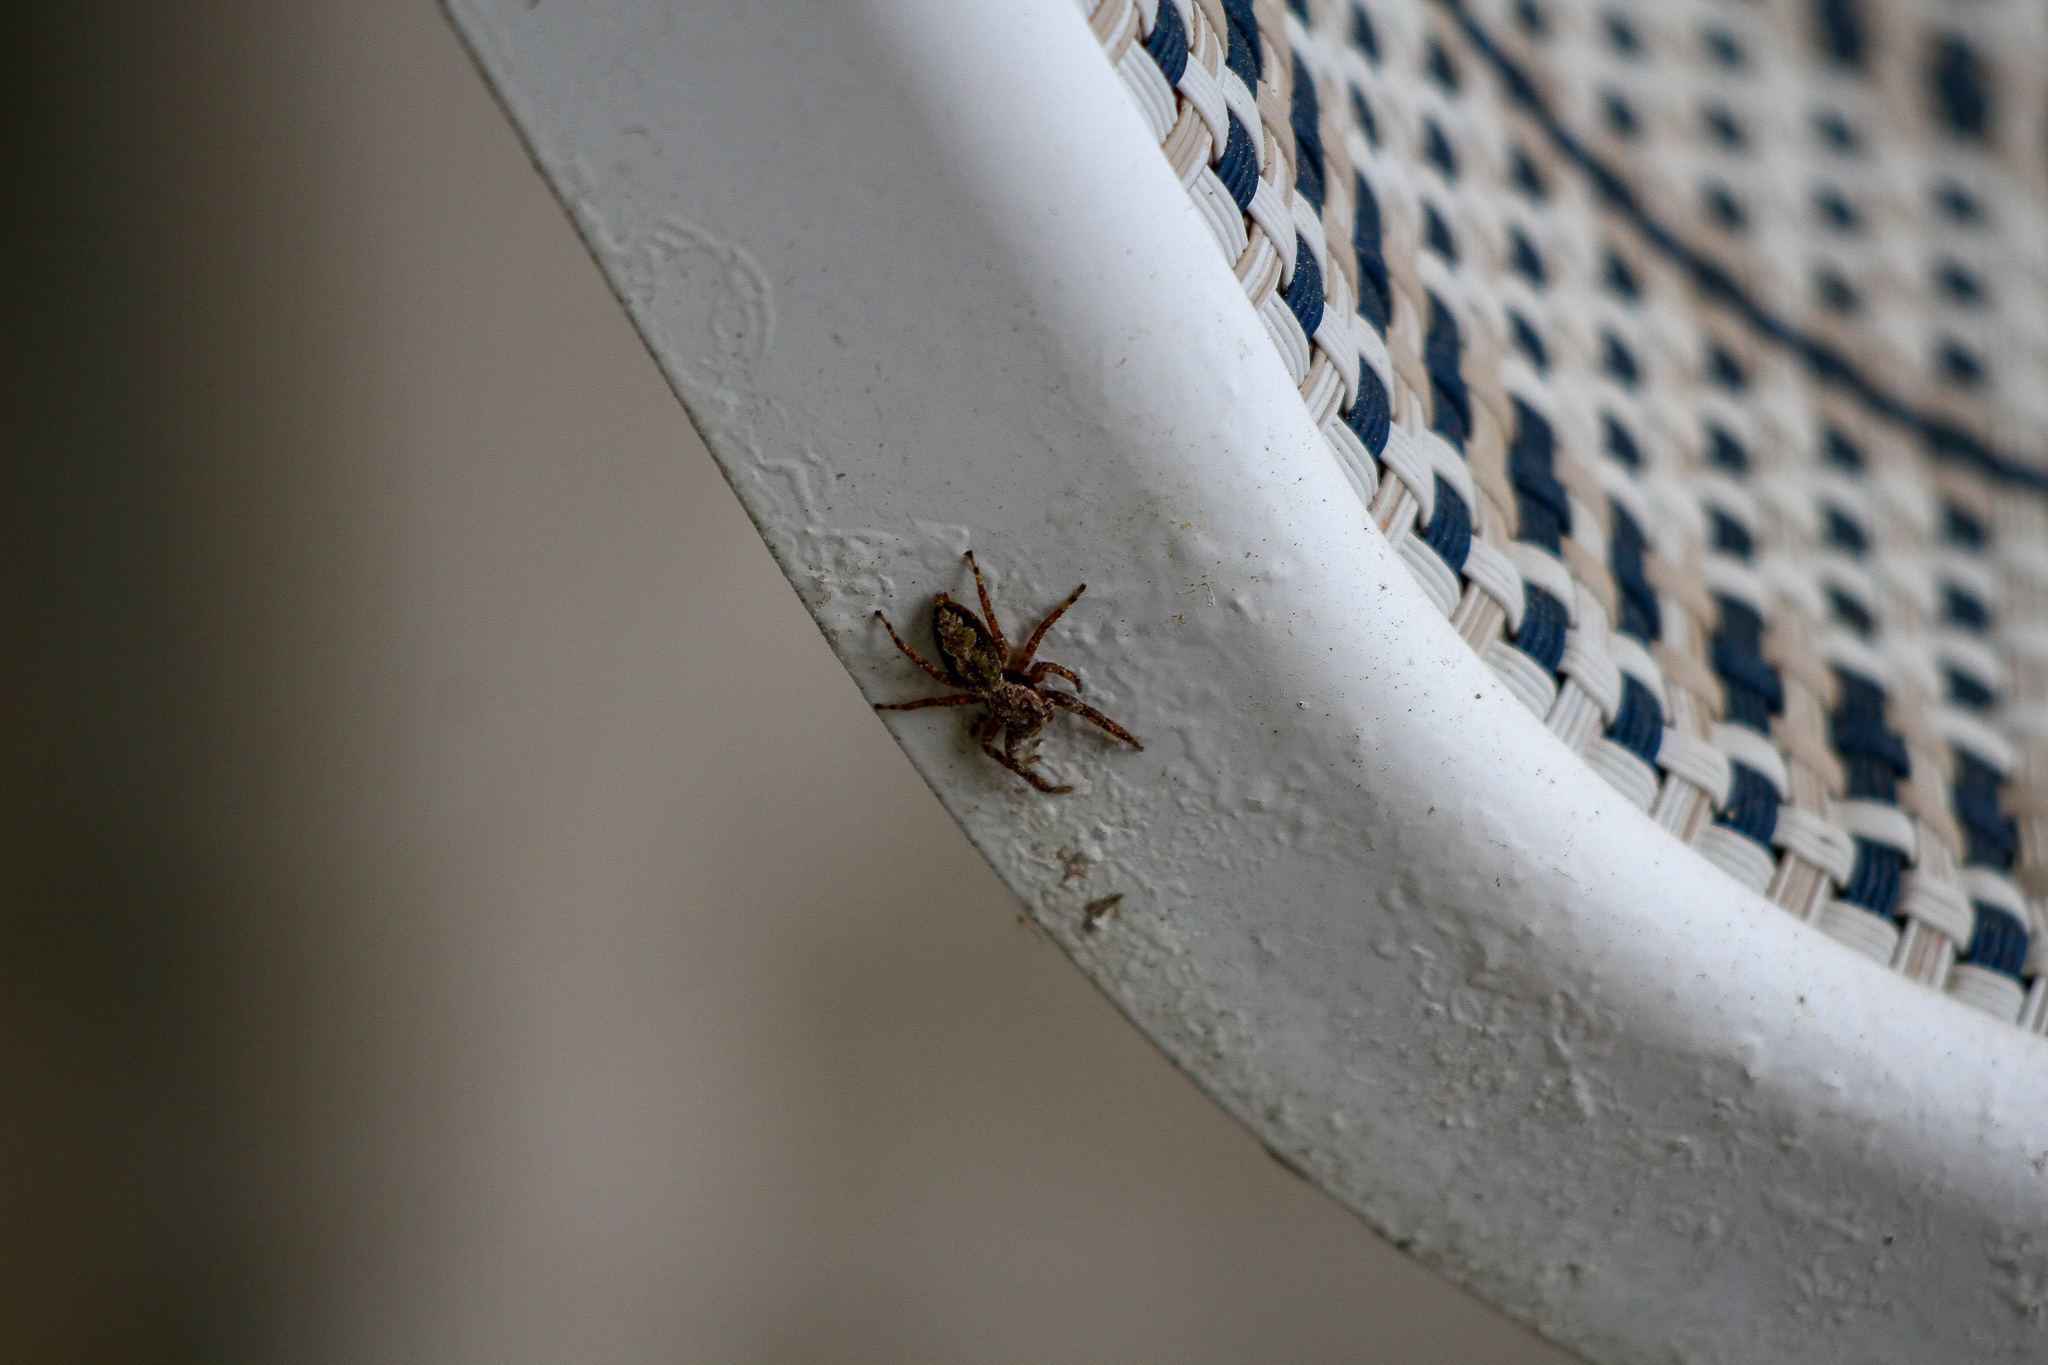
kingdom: Animalia
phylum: Arthropoda
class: Arachnida
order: Araneae
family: Salticidae
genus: Platycryptus
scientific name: Platycryptus undatus
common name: Tan jumping spider
